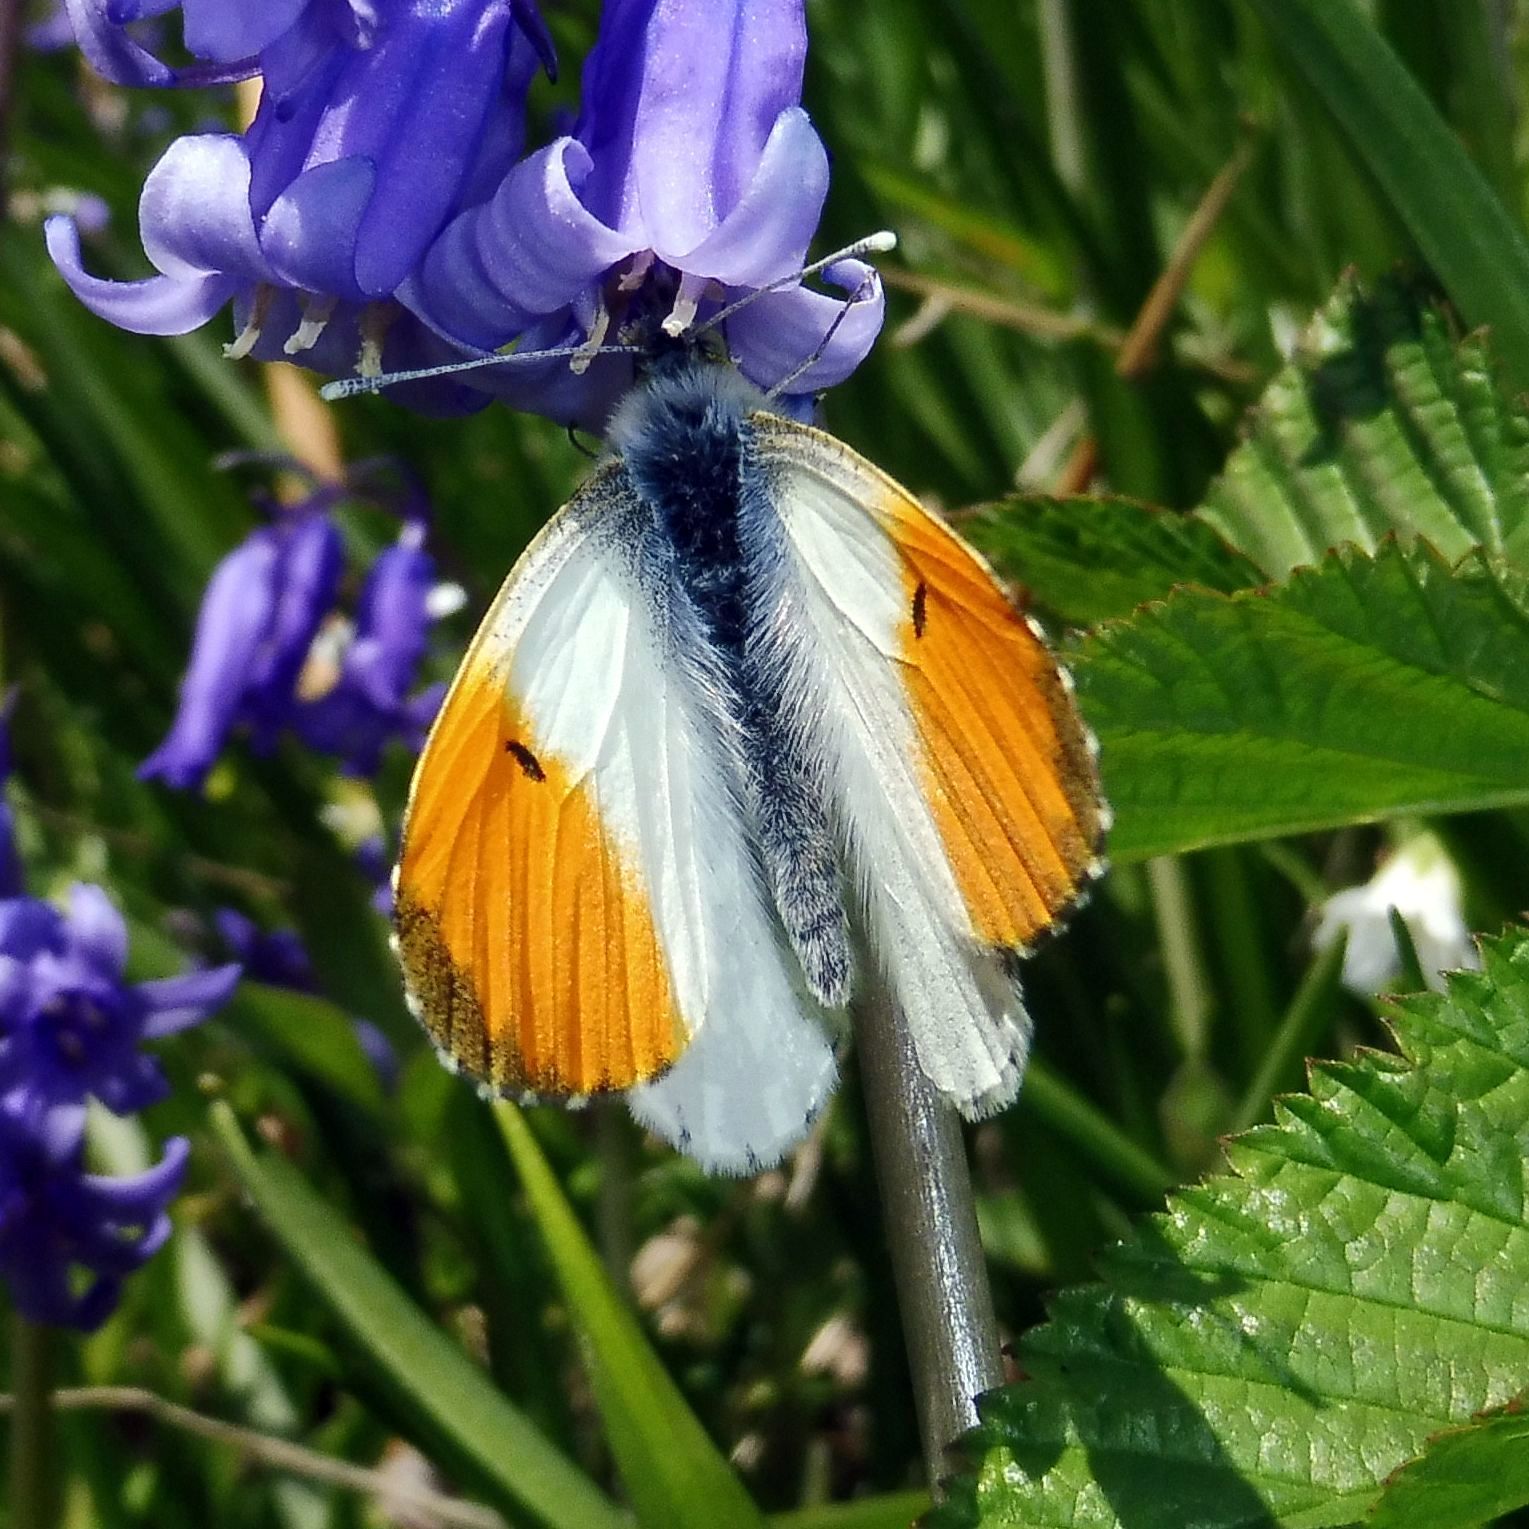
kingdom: Animalia
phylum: Arthropoda
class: Insecta
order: Lepidoptera
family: Pieridae
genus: Anthocharis
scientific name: Anthocharis cardamines
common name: Orange-tip
